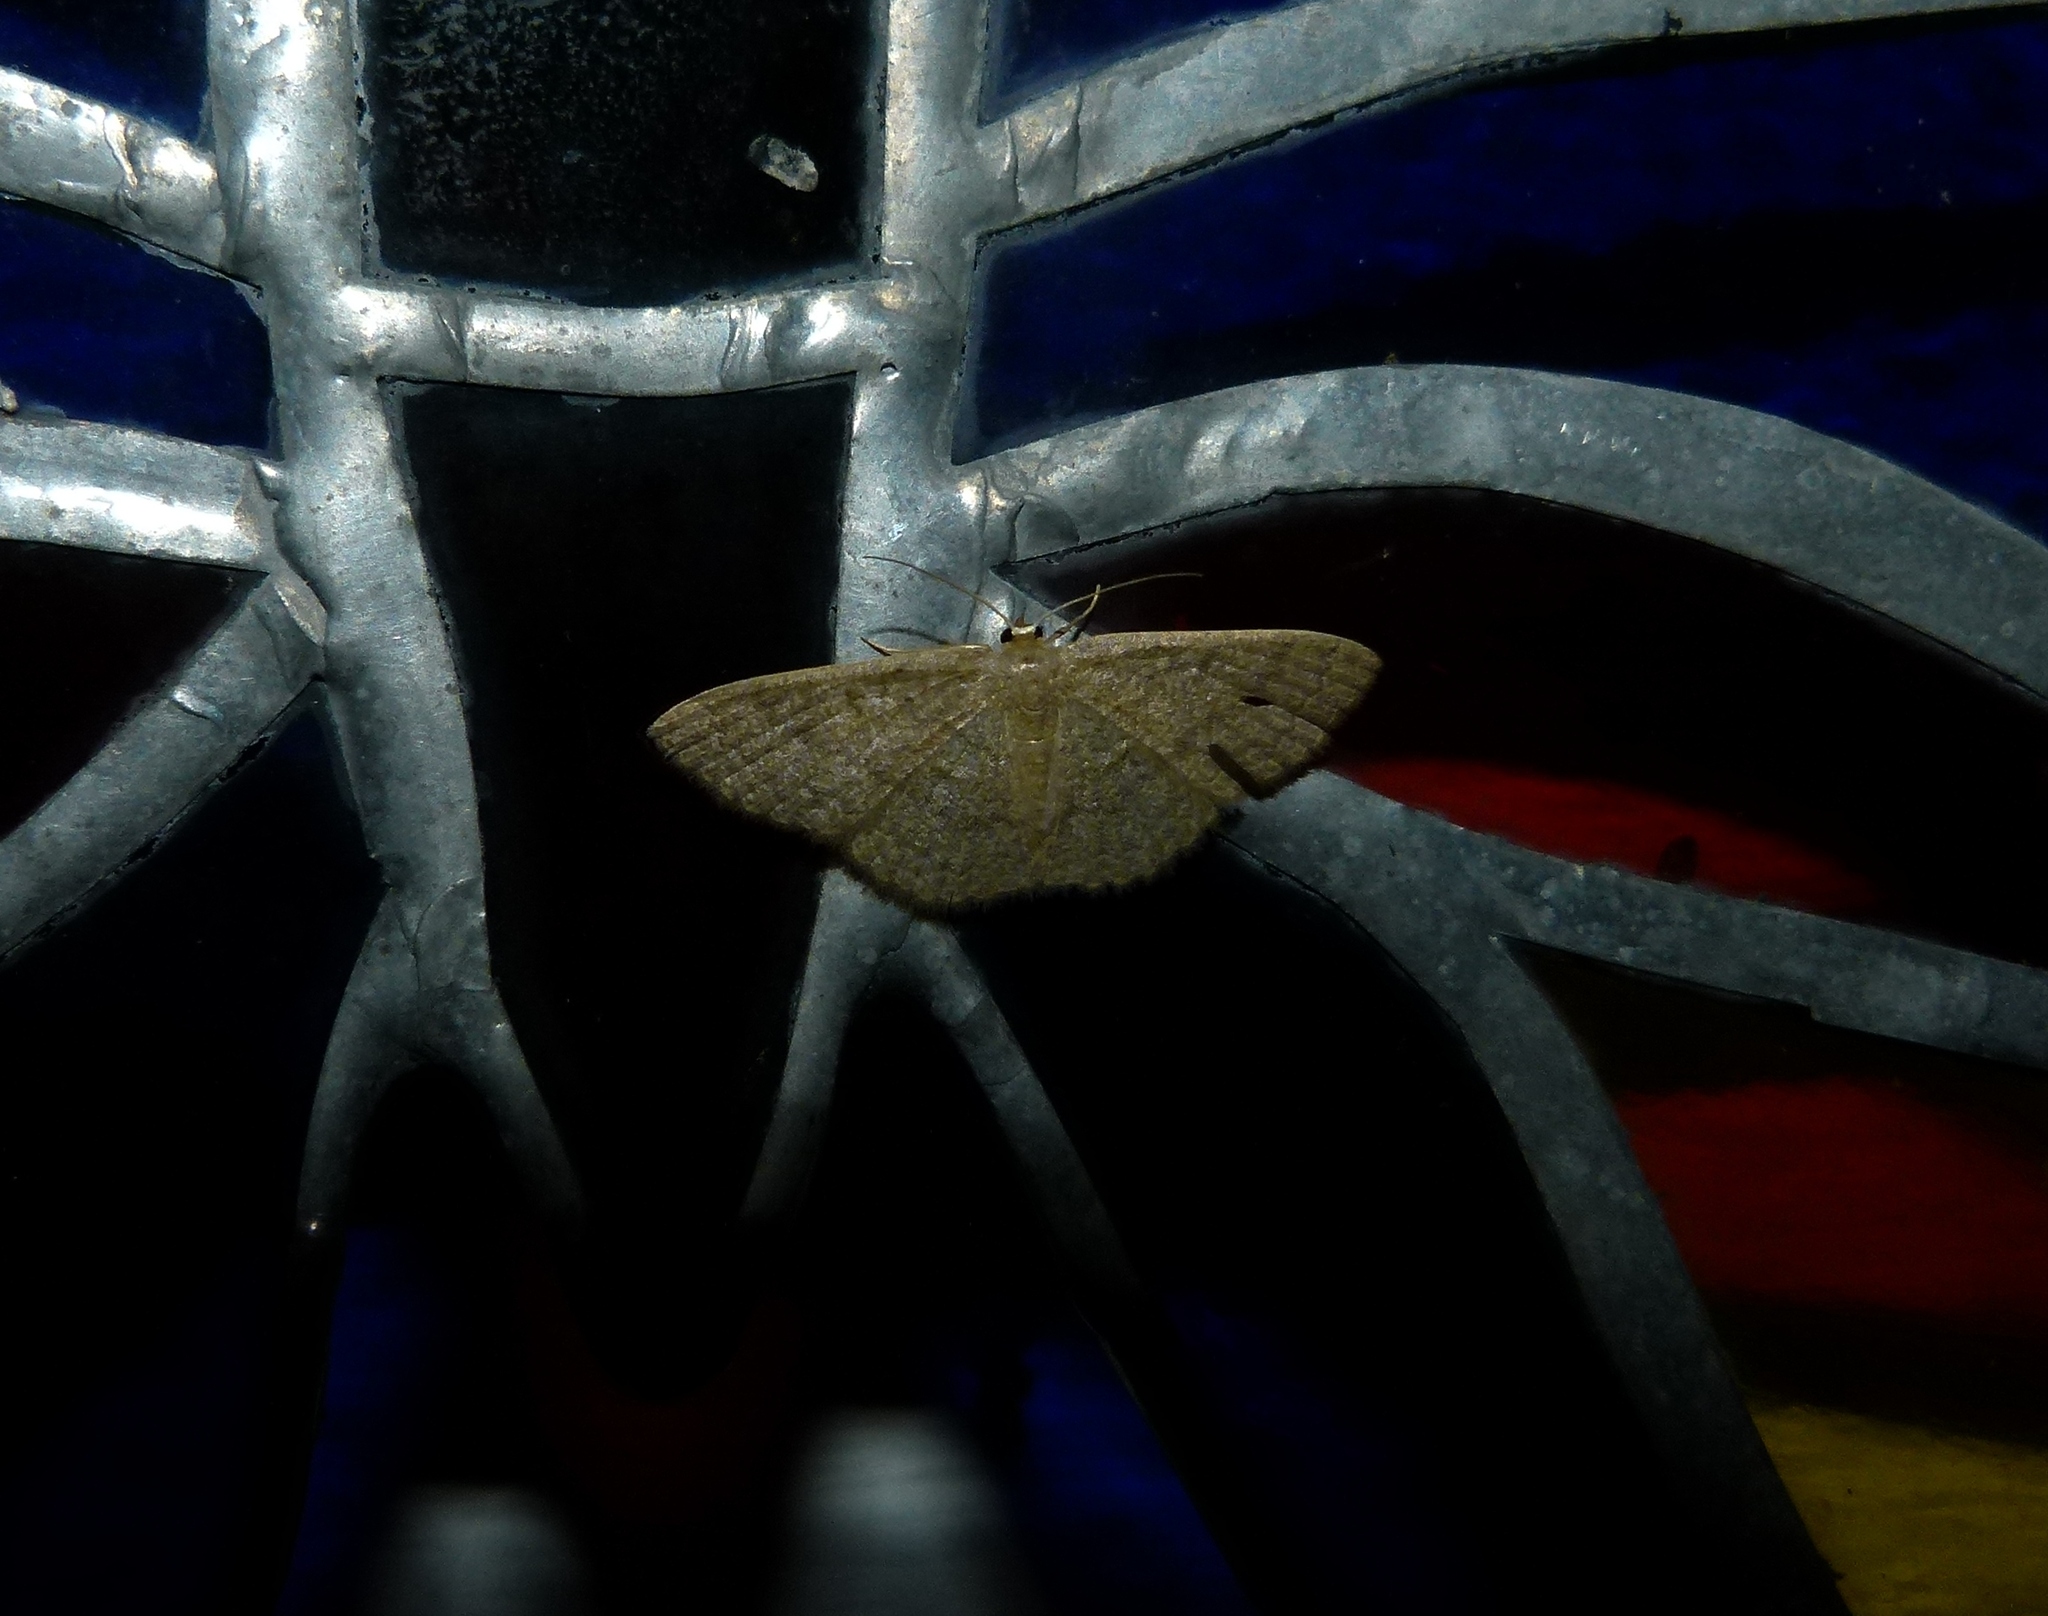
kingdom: Animalia
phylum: Arthropoda
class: Insecta
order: Lepidoptera
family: Geometridae
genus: Pleuroprucha
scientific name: Pleuroprucha insulsaria
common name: Common tan wave
